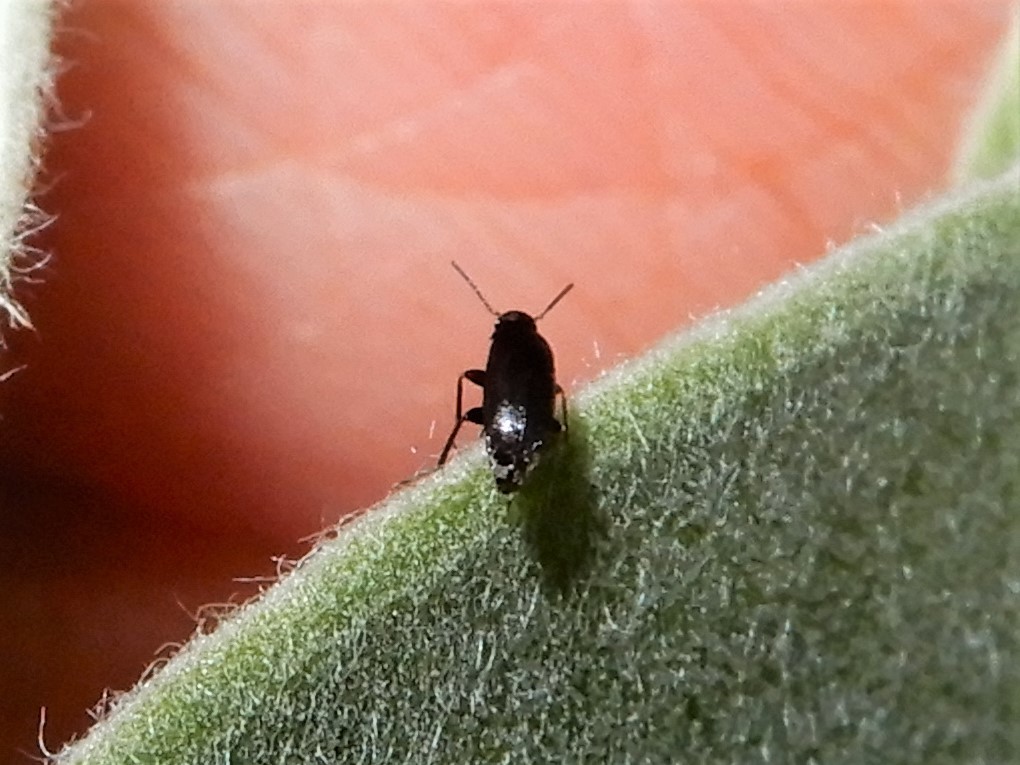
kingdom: Animalia
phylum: Arthropoda
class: Insecta
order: Coleoptera
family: Scraptiidae
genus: Nothotelus
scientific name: Nothotelus
